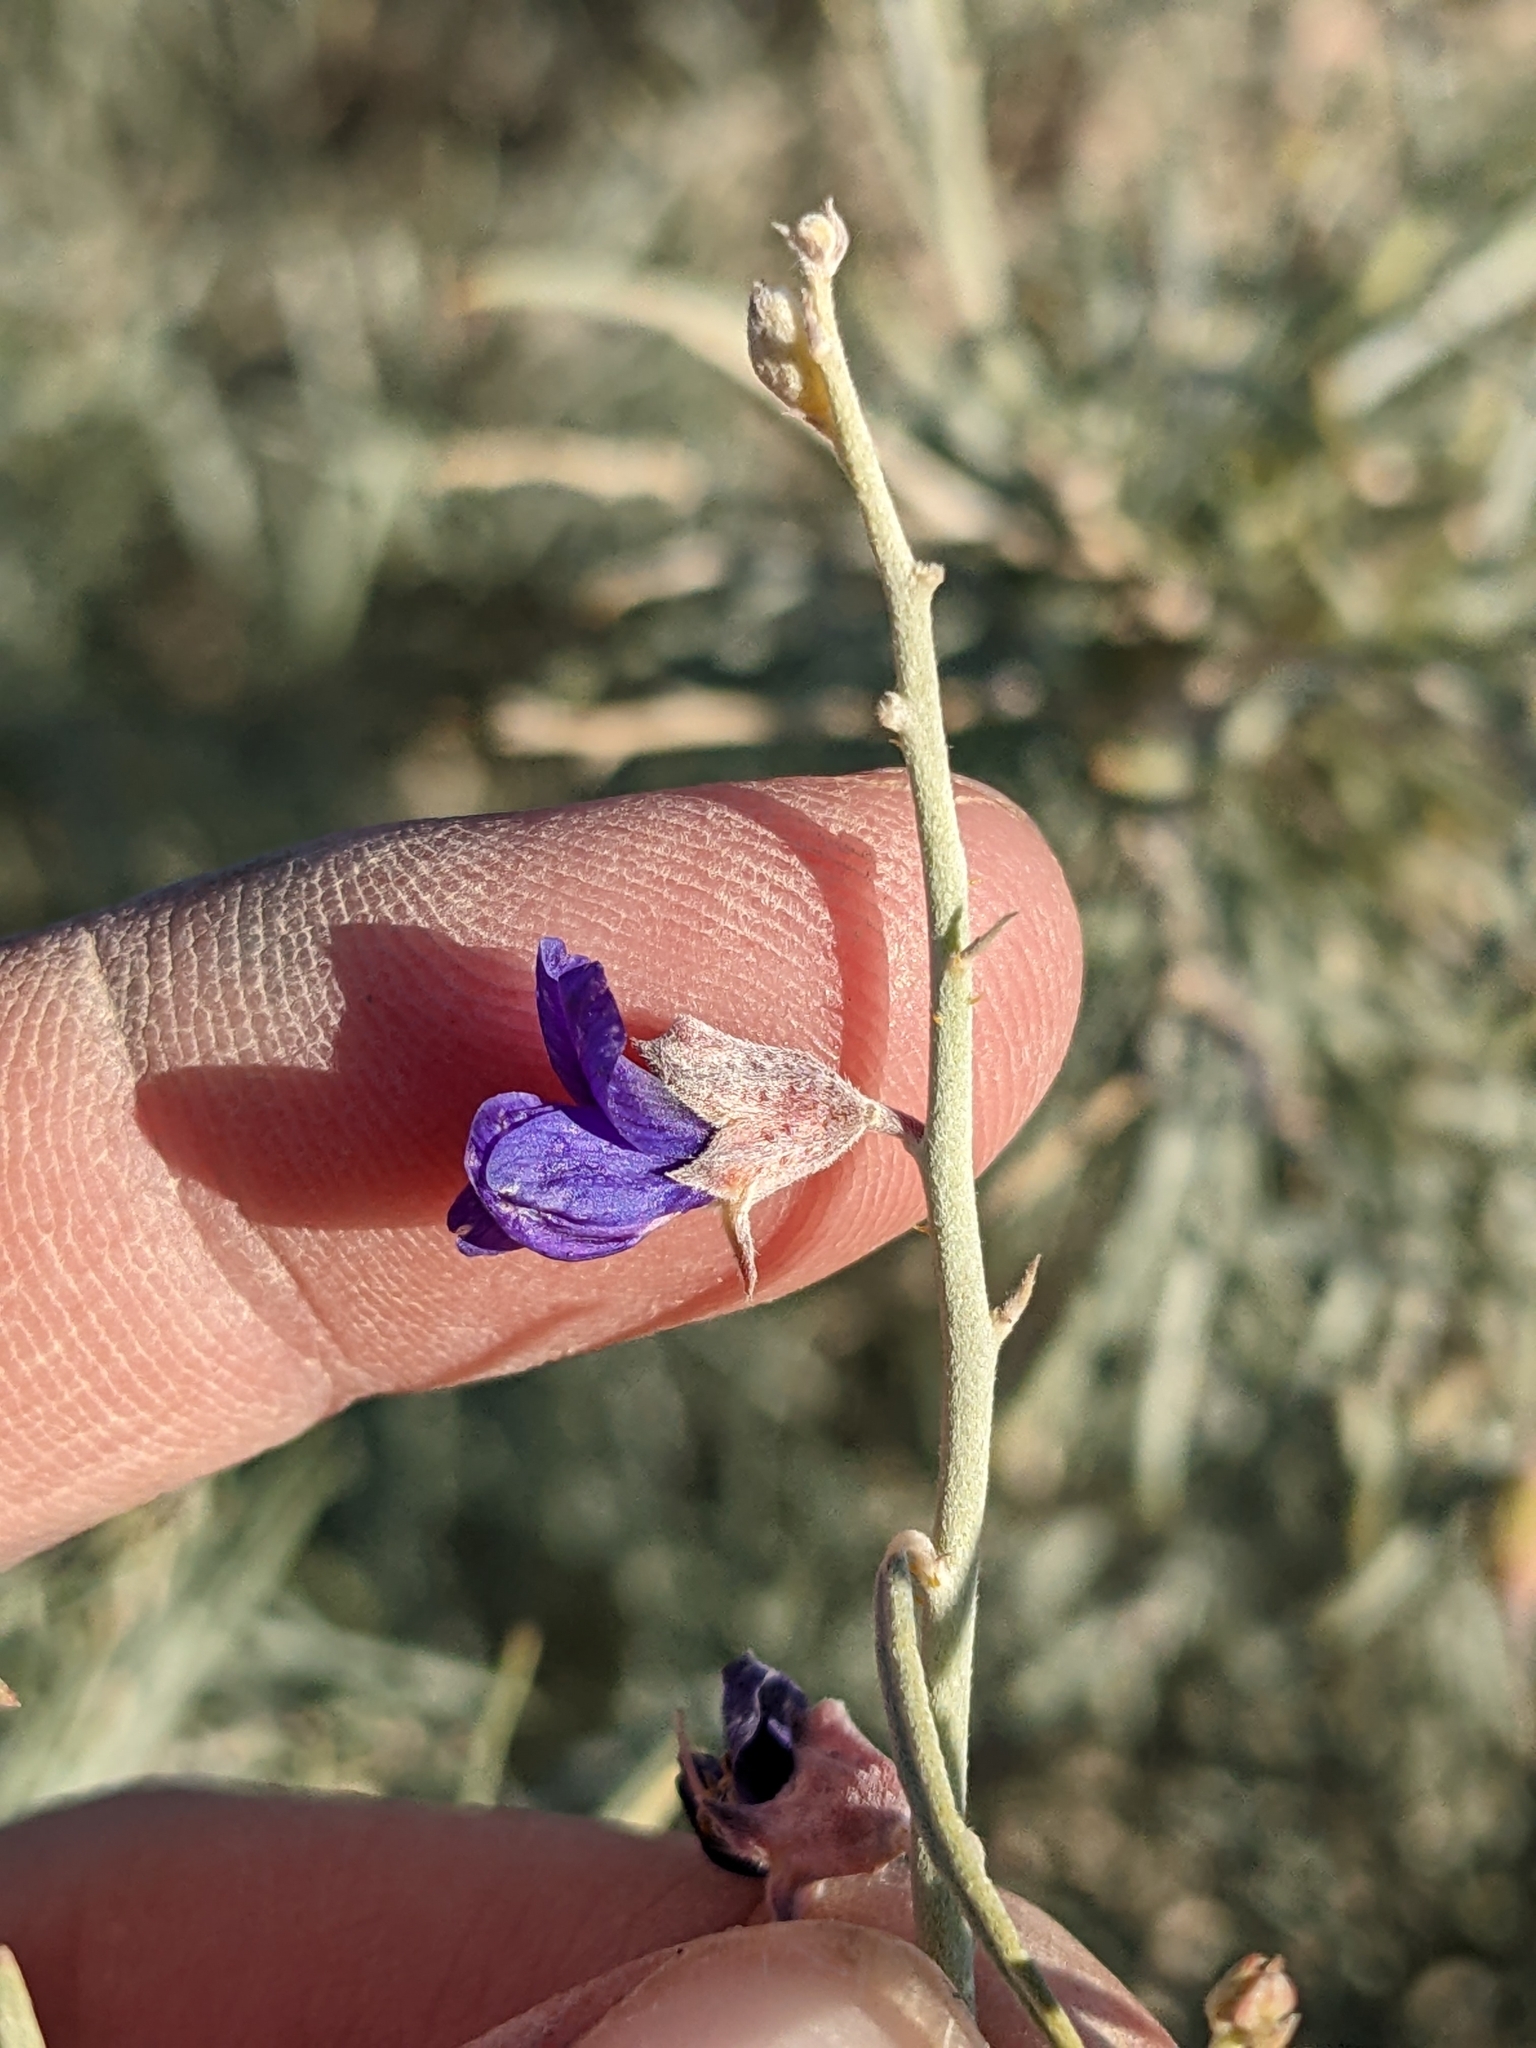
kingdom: Plantae
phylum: Tracheophyta
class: Magnoliopsida
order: Fabales
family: Fabaceae
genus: Psorothamnus
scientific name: Psorothamnus schottii
